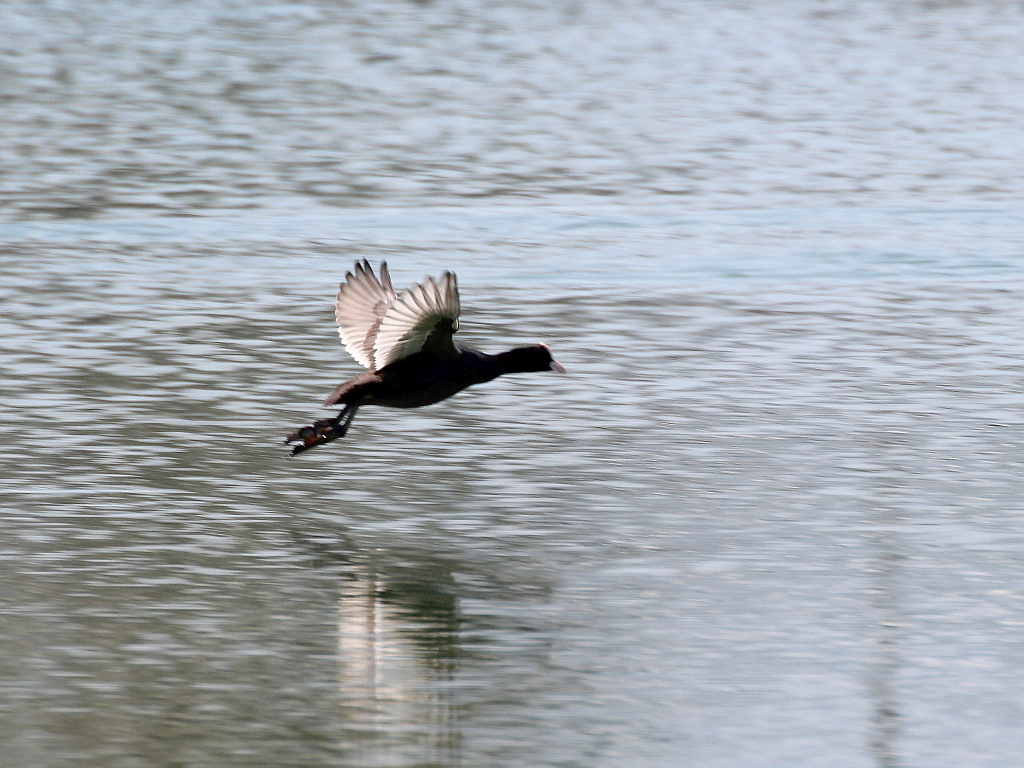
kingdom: Animalia
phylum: Chordata
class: Aves
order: Gruiformes
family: Rallidae
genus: Fulica
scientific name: Fulica atra
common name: Eurasian coot
